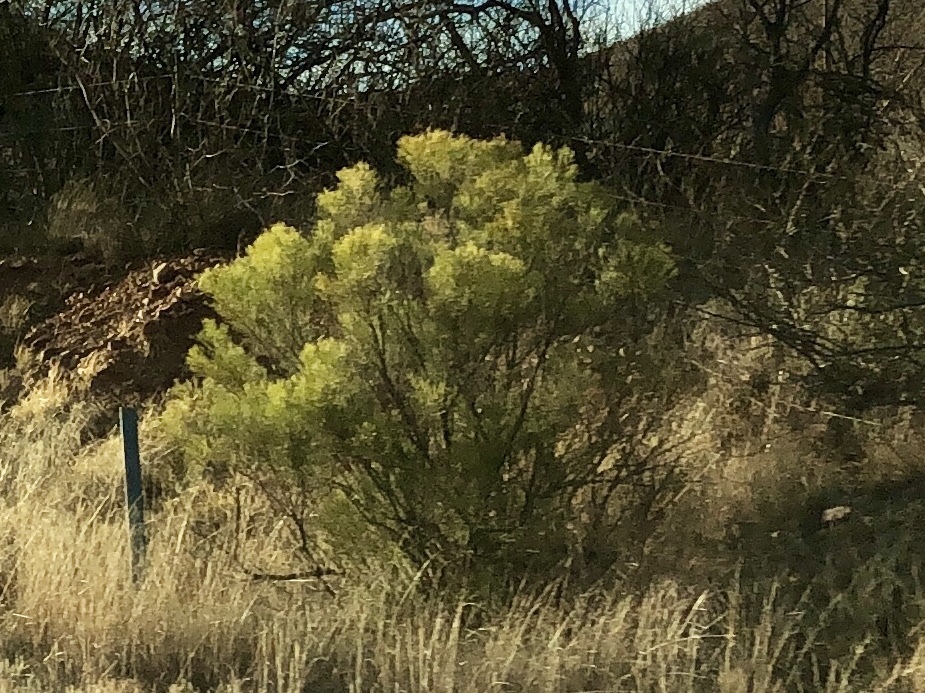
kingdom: Plantae
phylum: Tracheophyta
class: Magnoliopsida
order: Asterales
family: Asteraceae
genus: Baccharis
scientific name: Baccharis sarothroides
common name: Desert-broom
